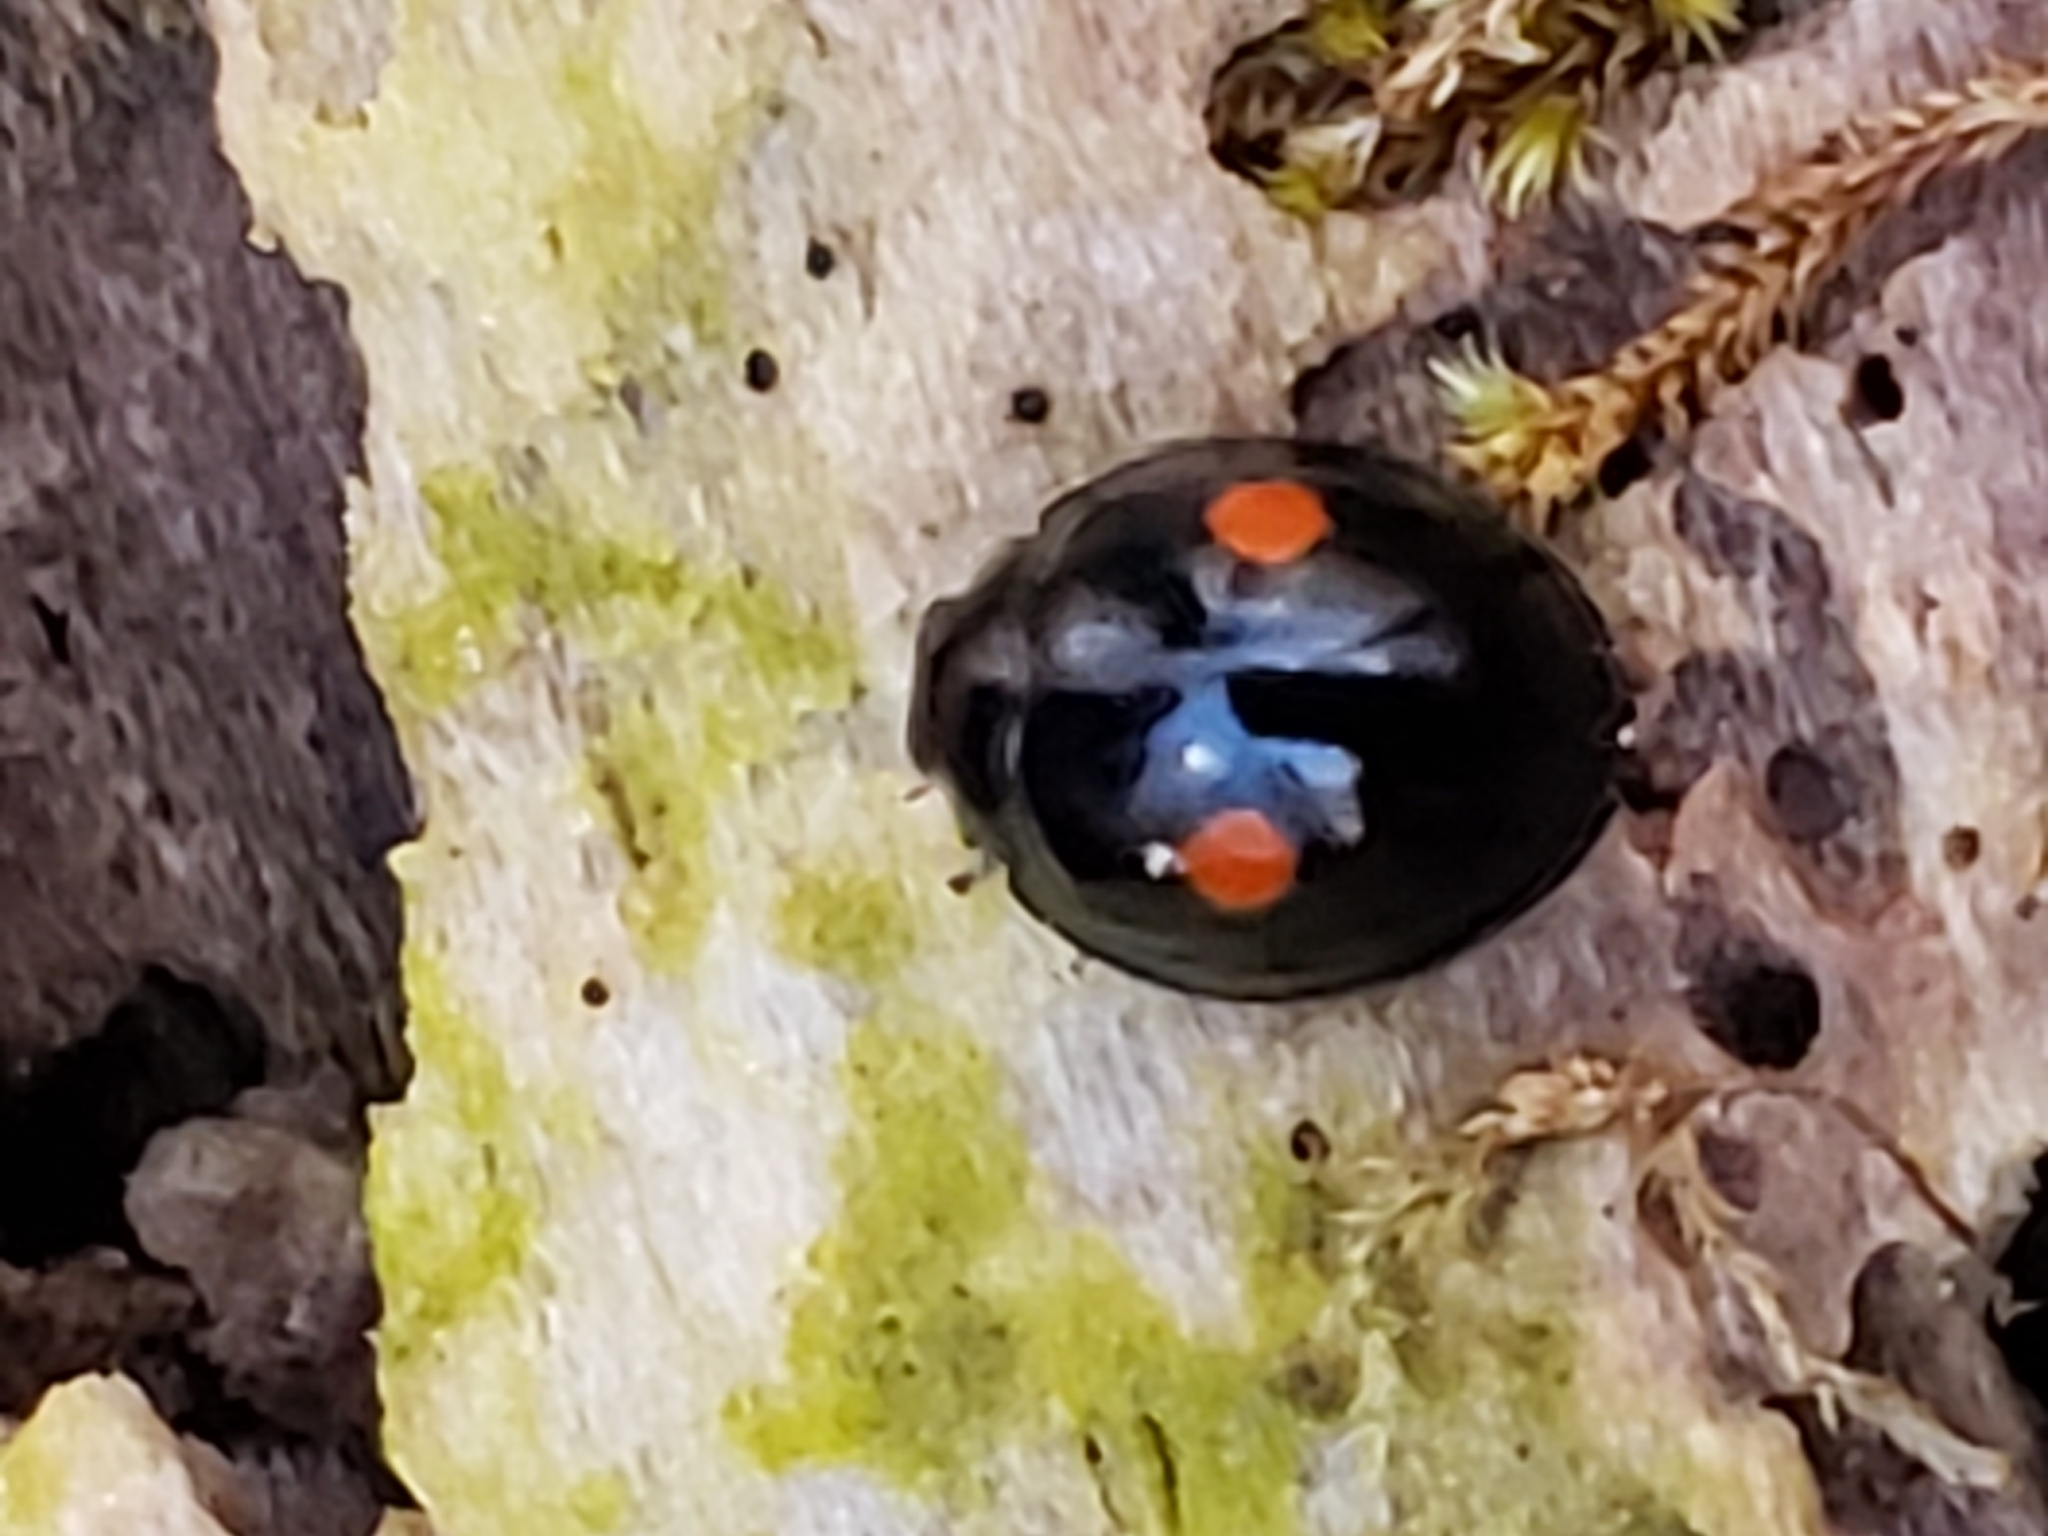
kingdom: Animalia
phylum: Arthropoda
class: Insecta
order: Coleoptera
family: Coccinellidae
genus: Chilocorus
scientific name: Chilocorus stigma
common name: Twicestabbed lady beetle
